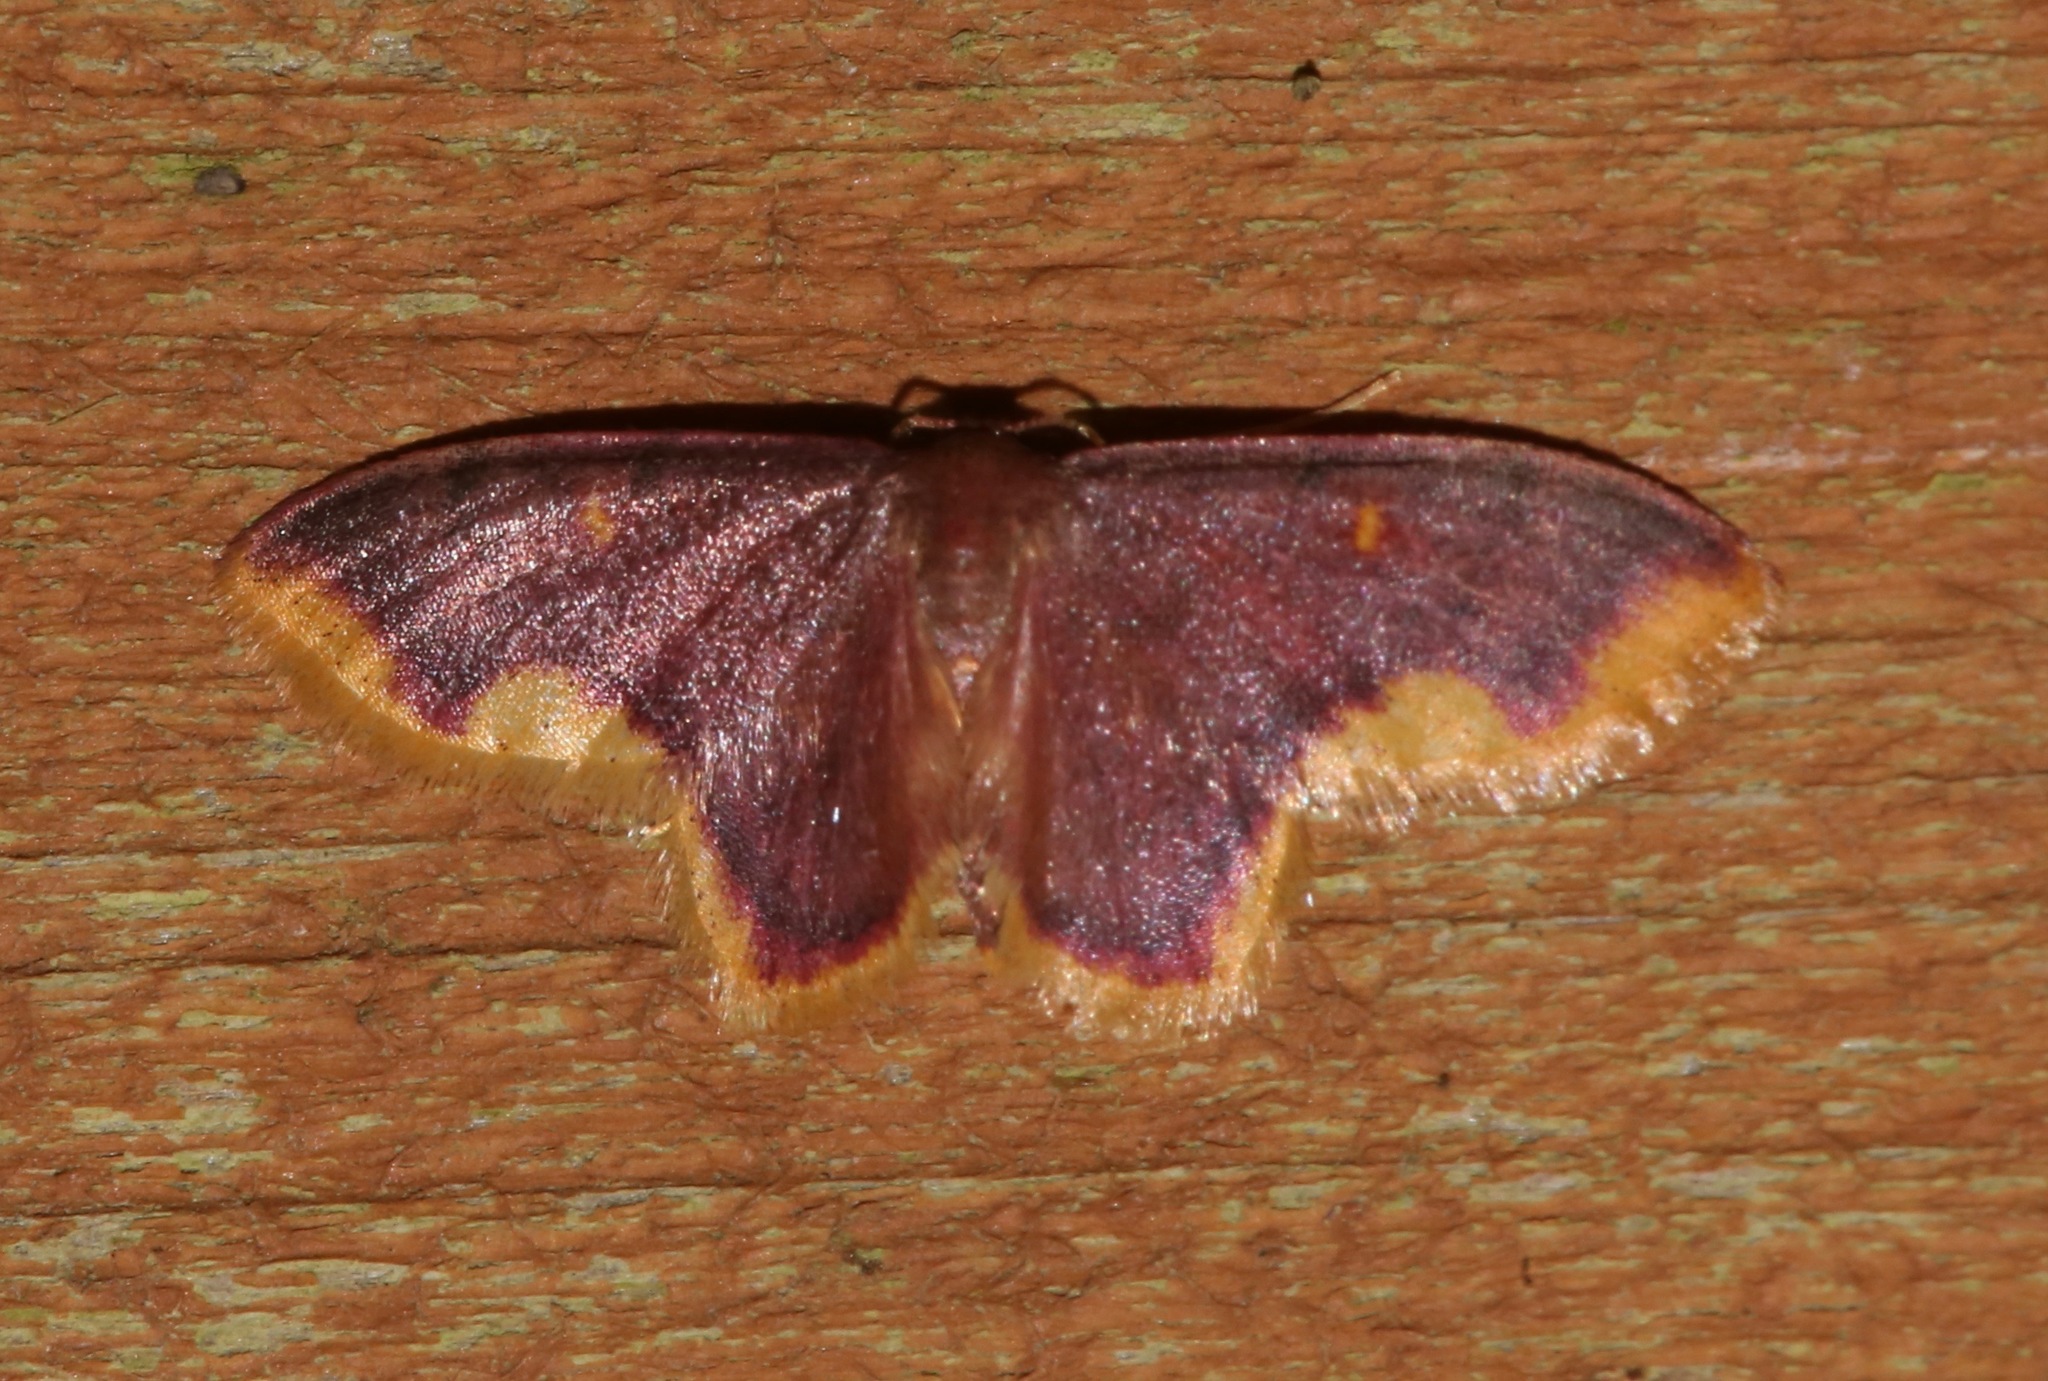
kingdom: Animalia
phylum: Arthropoda
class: Insecta
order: Lepidoptera
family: Geometridae
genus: Lophosis
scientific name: Lophosis labeculata
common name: Stained lophosis moth
